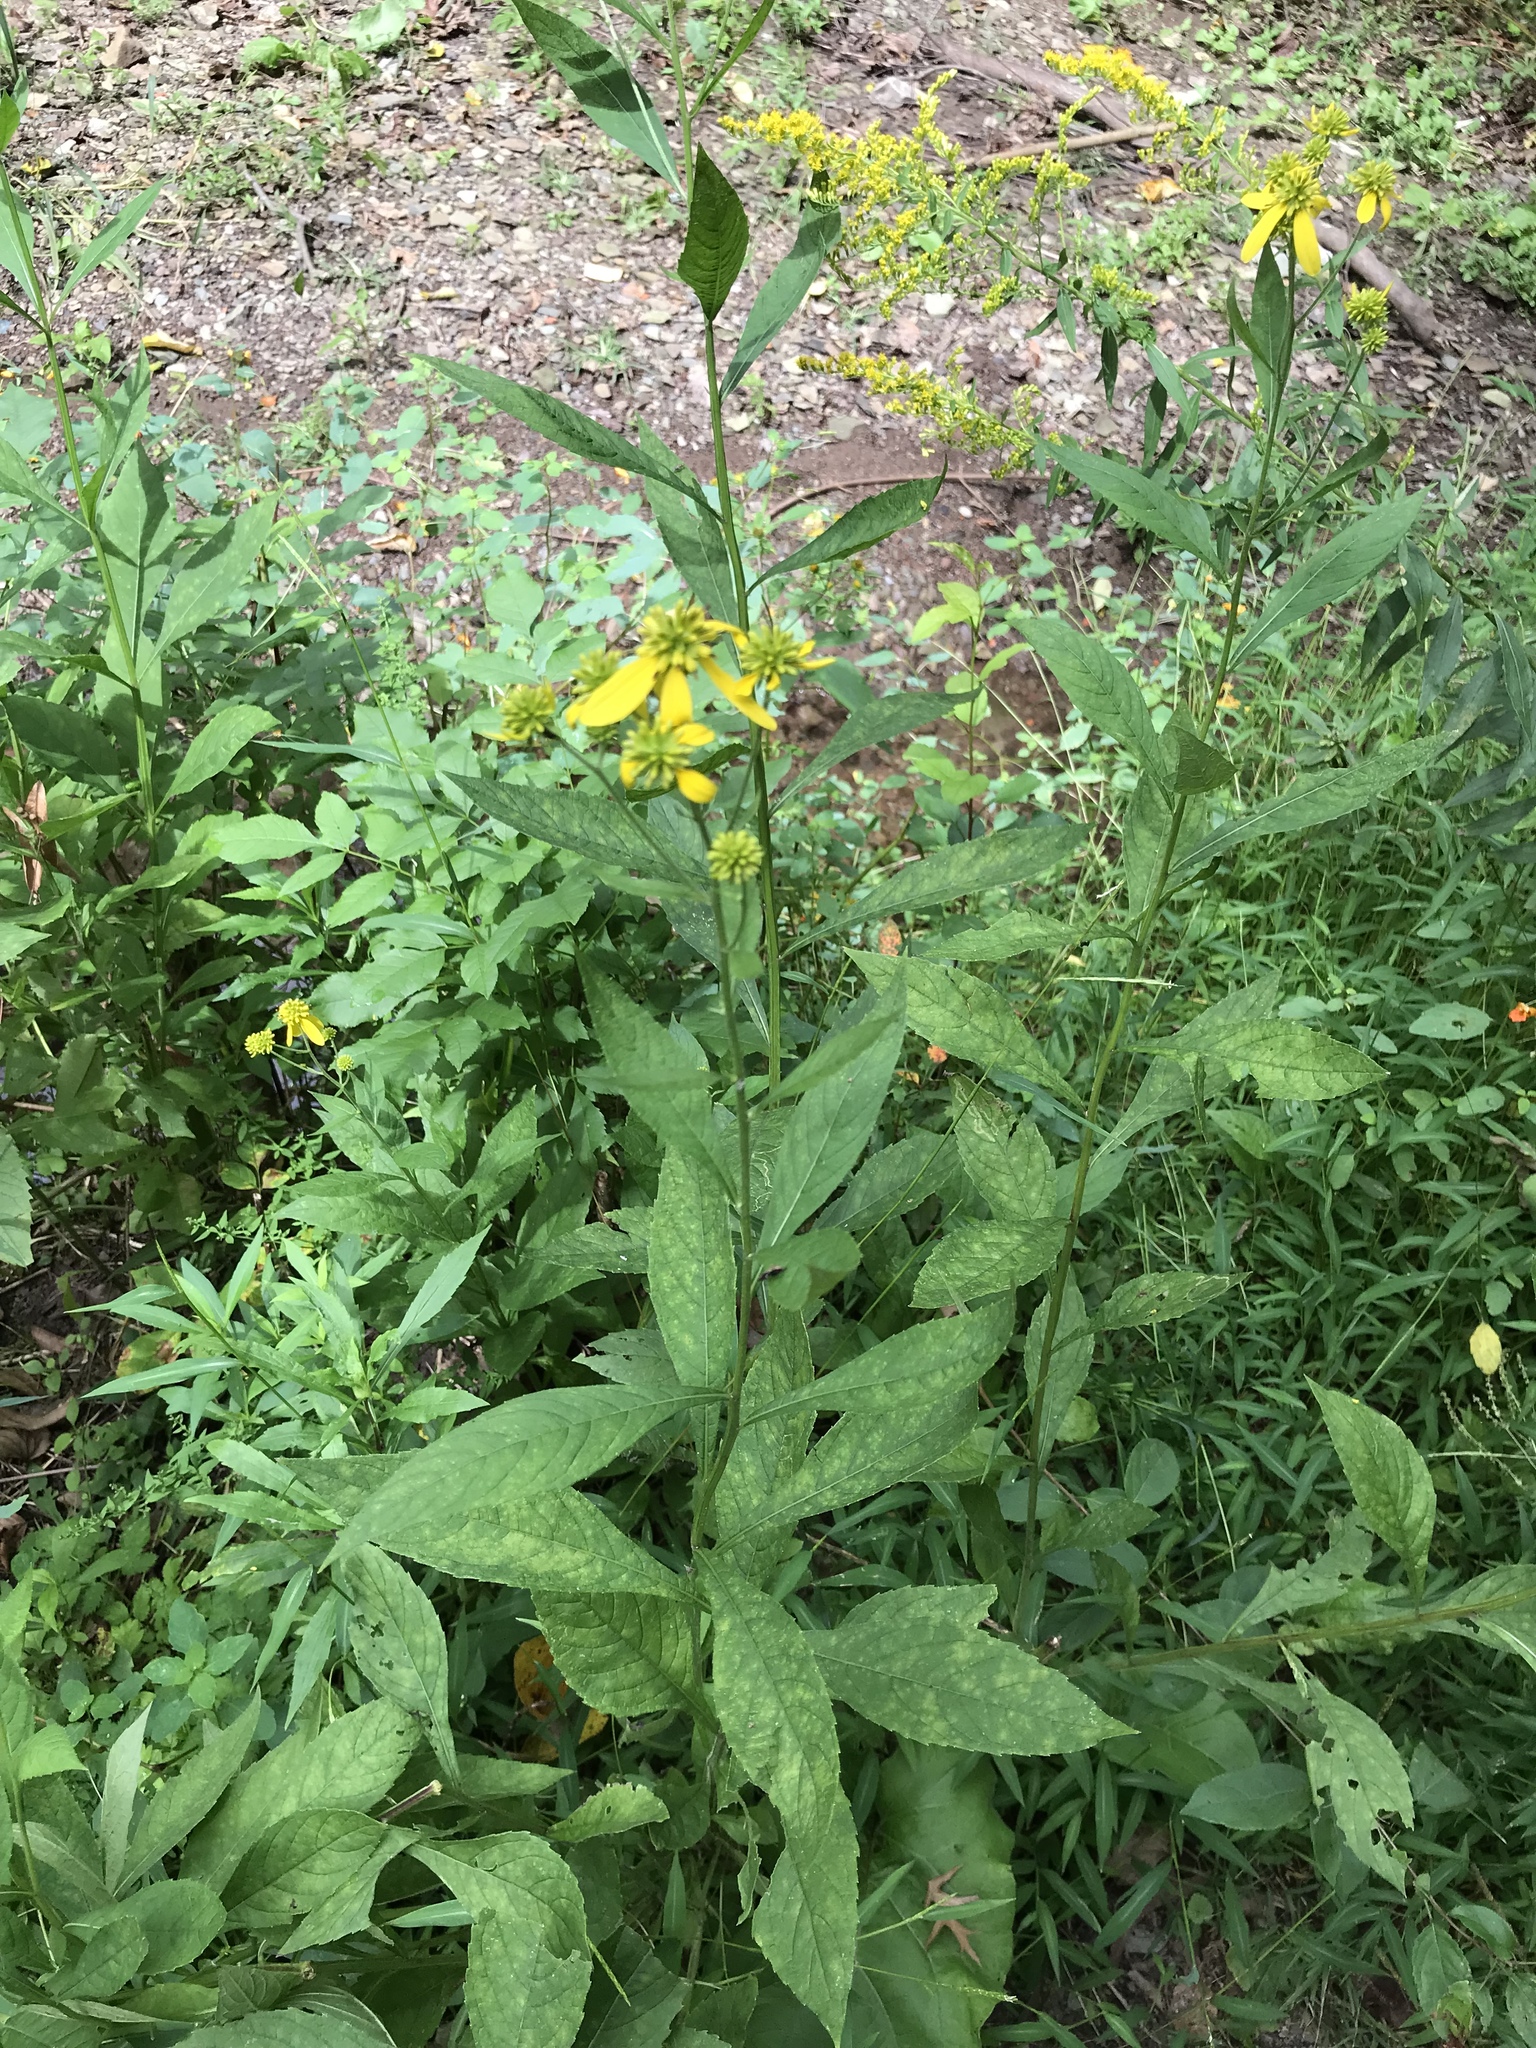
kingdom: Plantae
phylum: Tracheophyta
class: Magnoliopsida
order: Asterales
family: Asteraceae
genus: Verbesina
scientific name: Verbesina alternifolia
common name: Wingstem
